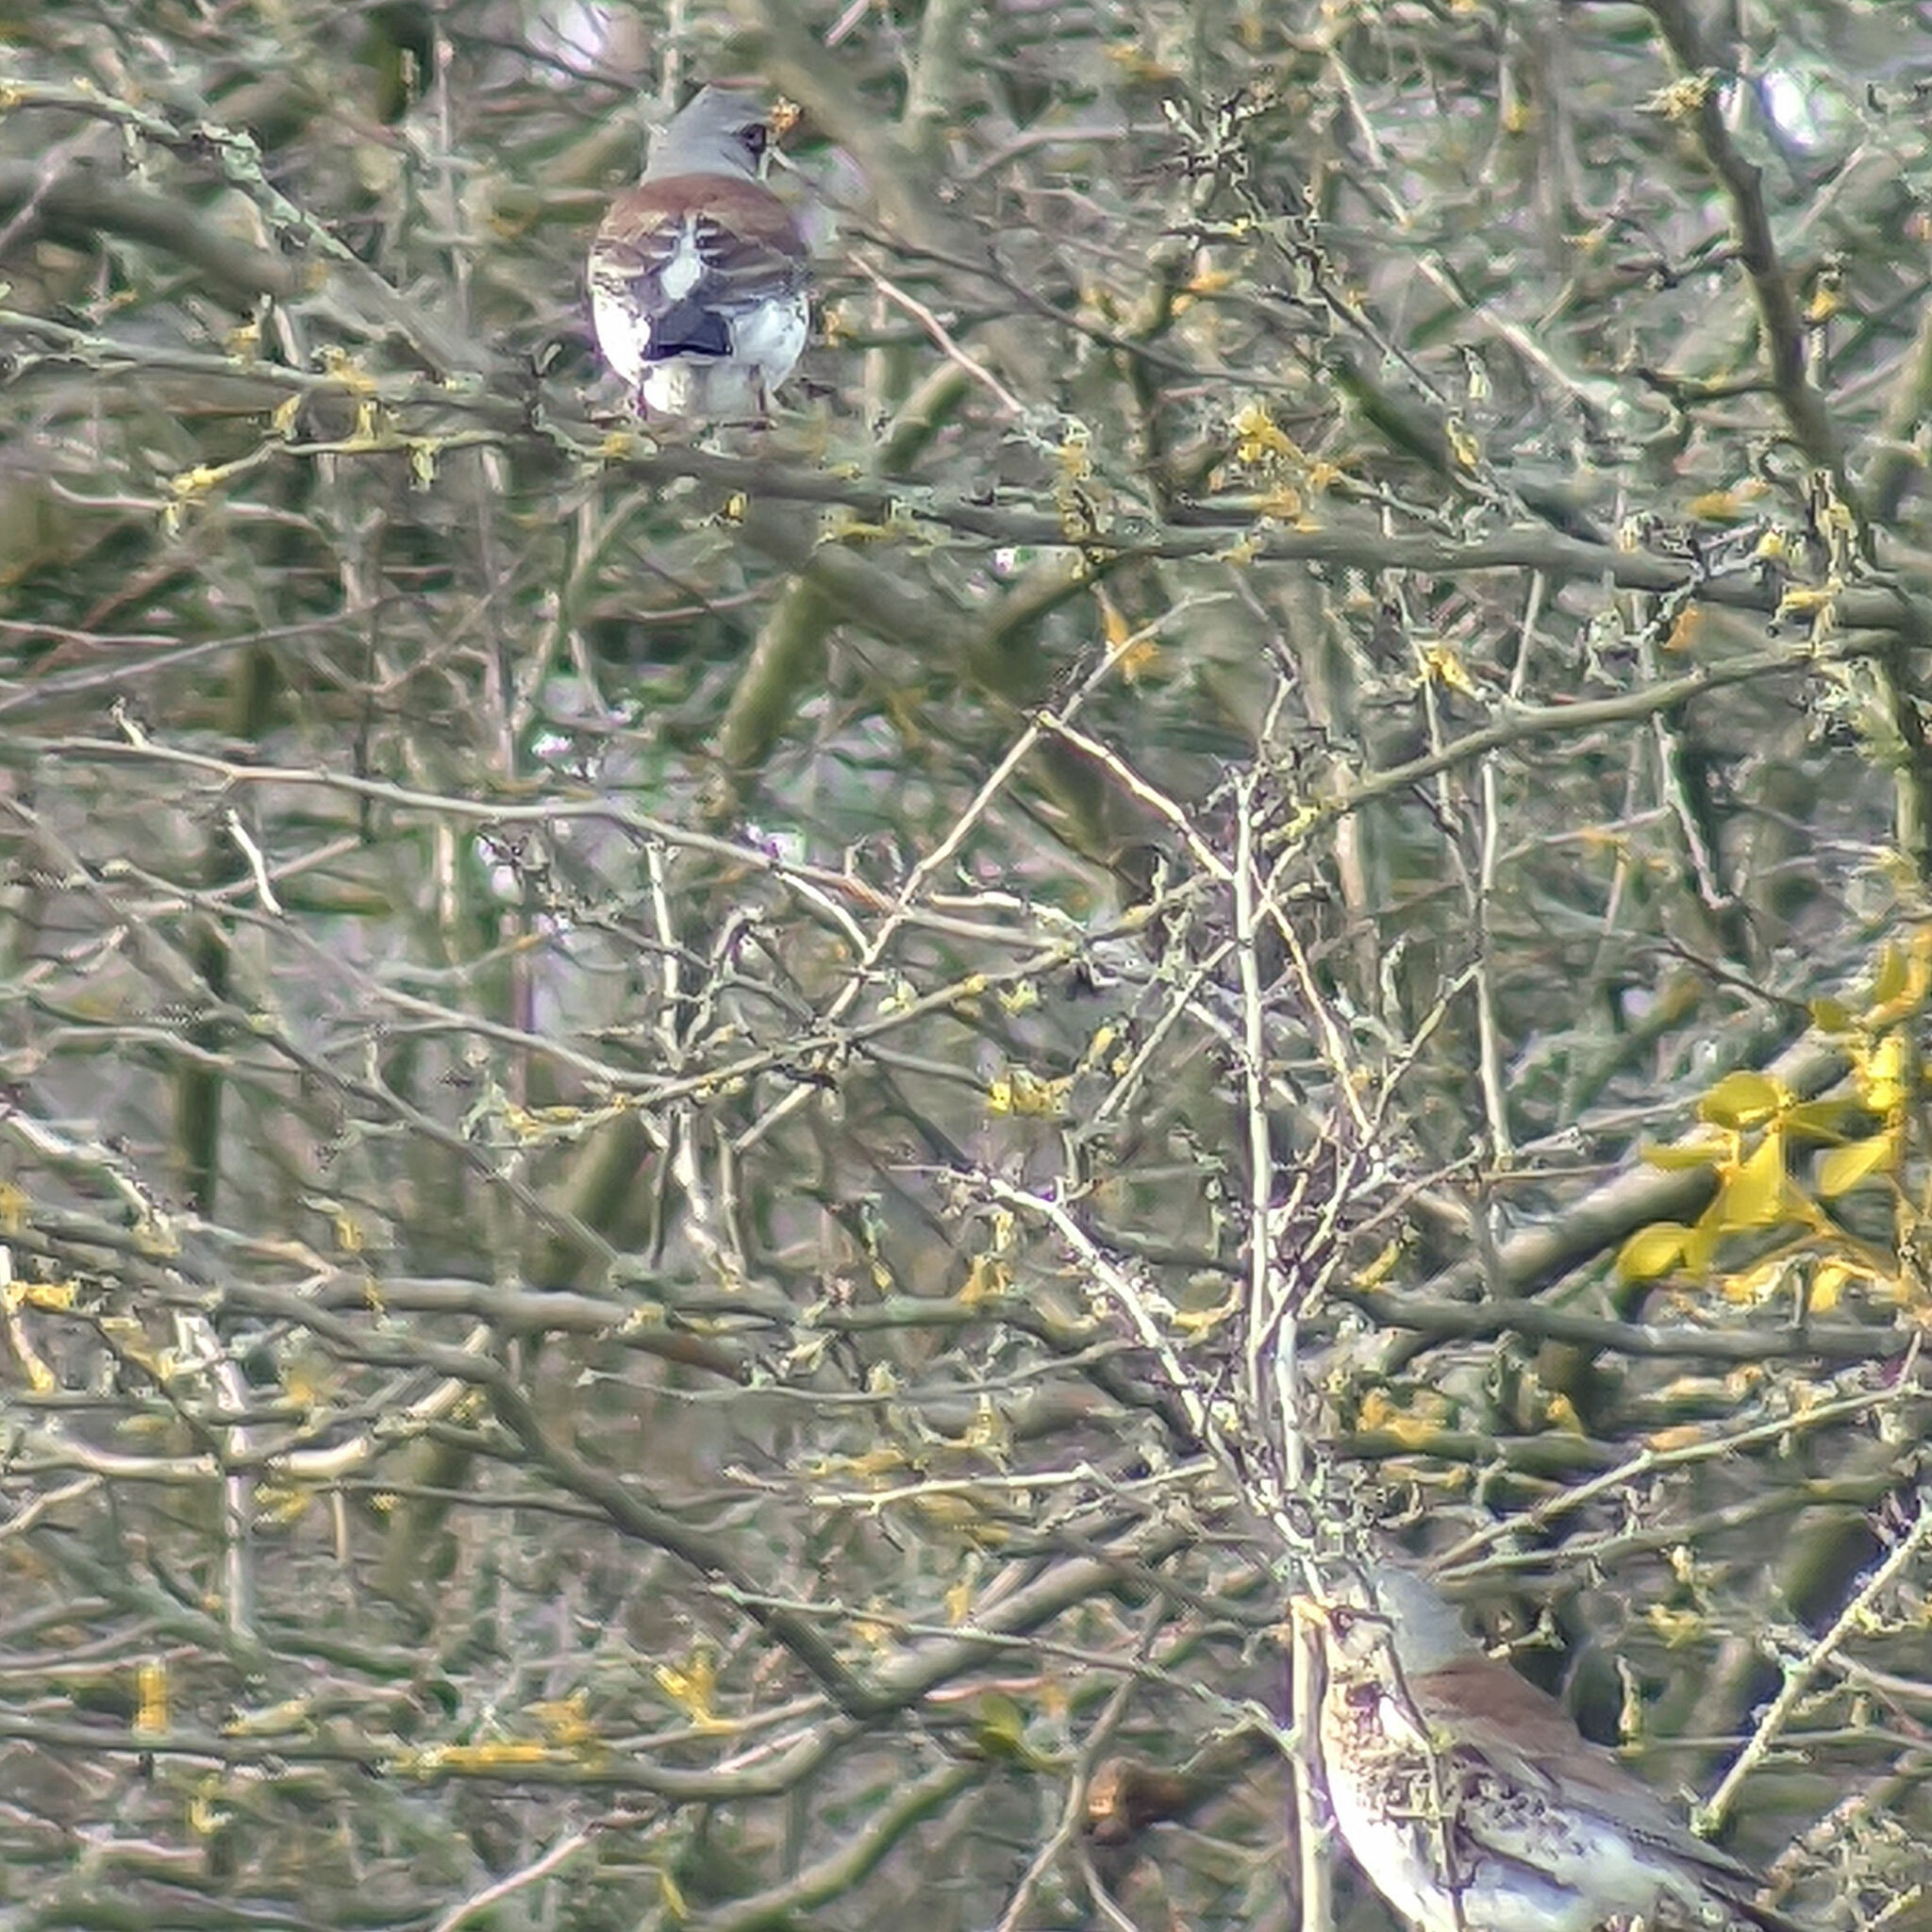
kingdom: Animalia
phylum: Chordata
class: Aves
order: Passeriformes
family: Turdidae
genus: Turdus
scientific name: Turdus pilaris
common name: Fieldfare
